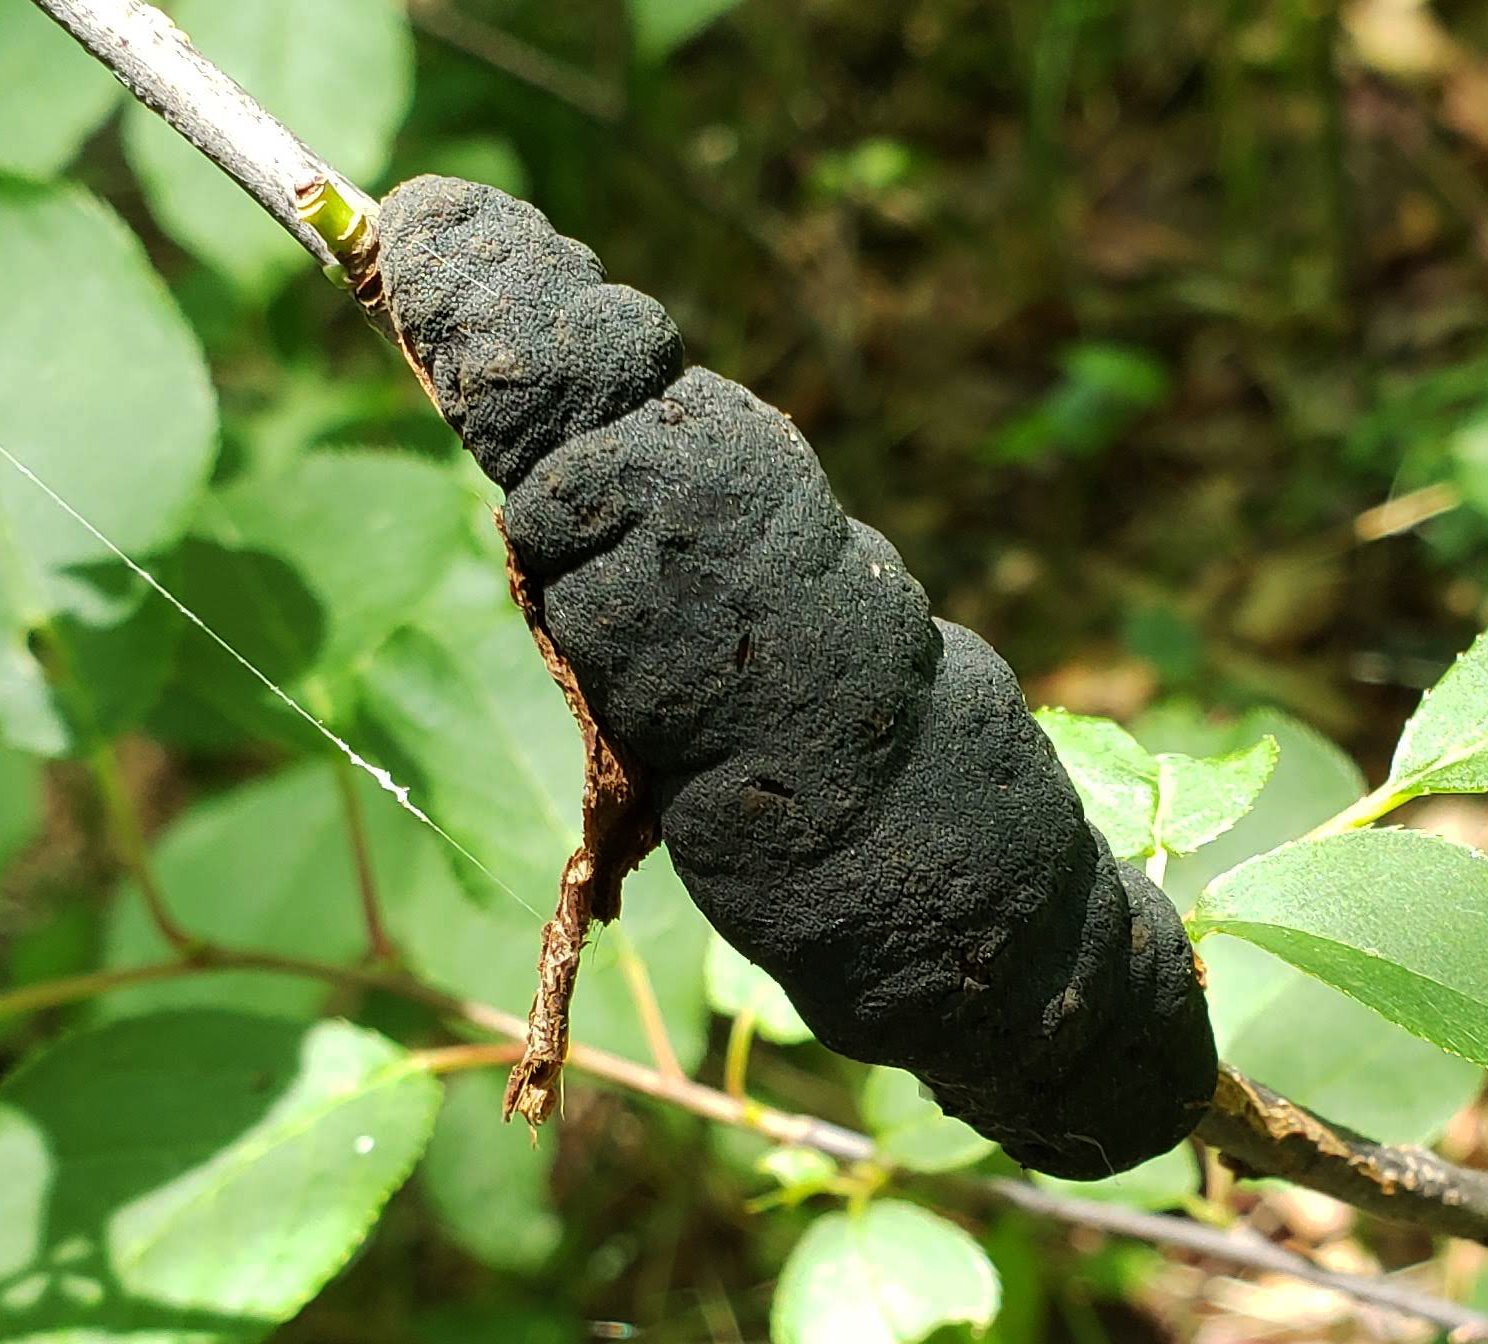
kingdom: Fungi
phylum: Ascomycota
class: Dothideomycetes
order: Venturiales
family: Venturiaceae
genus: Apiosporina
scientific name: Apiosporina morbosa
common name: Black knot
